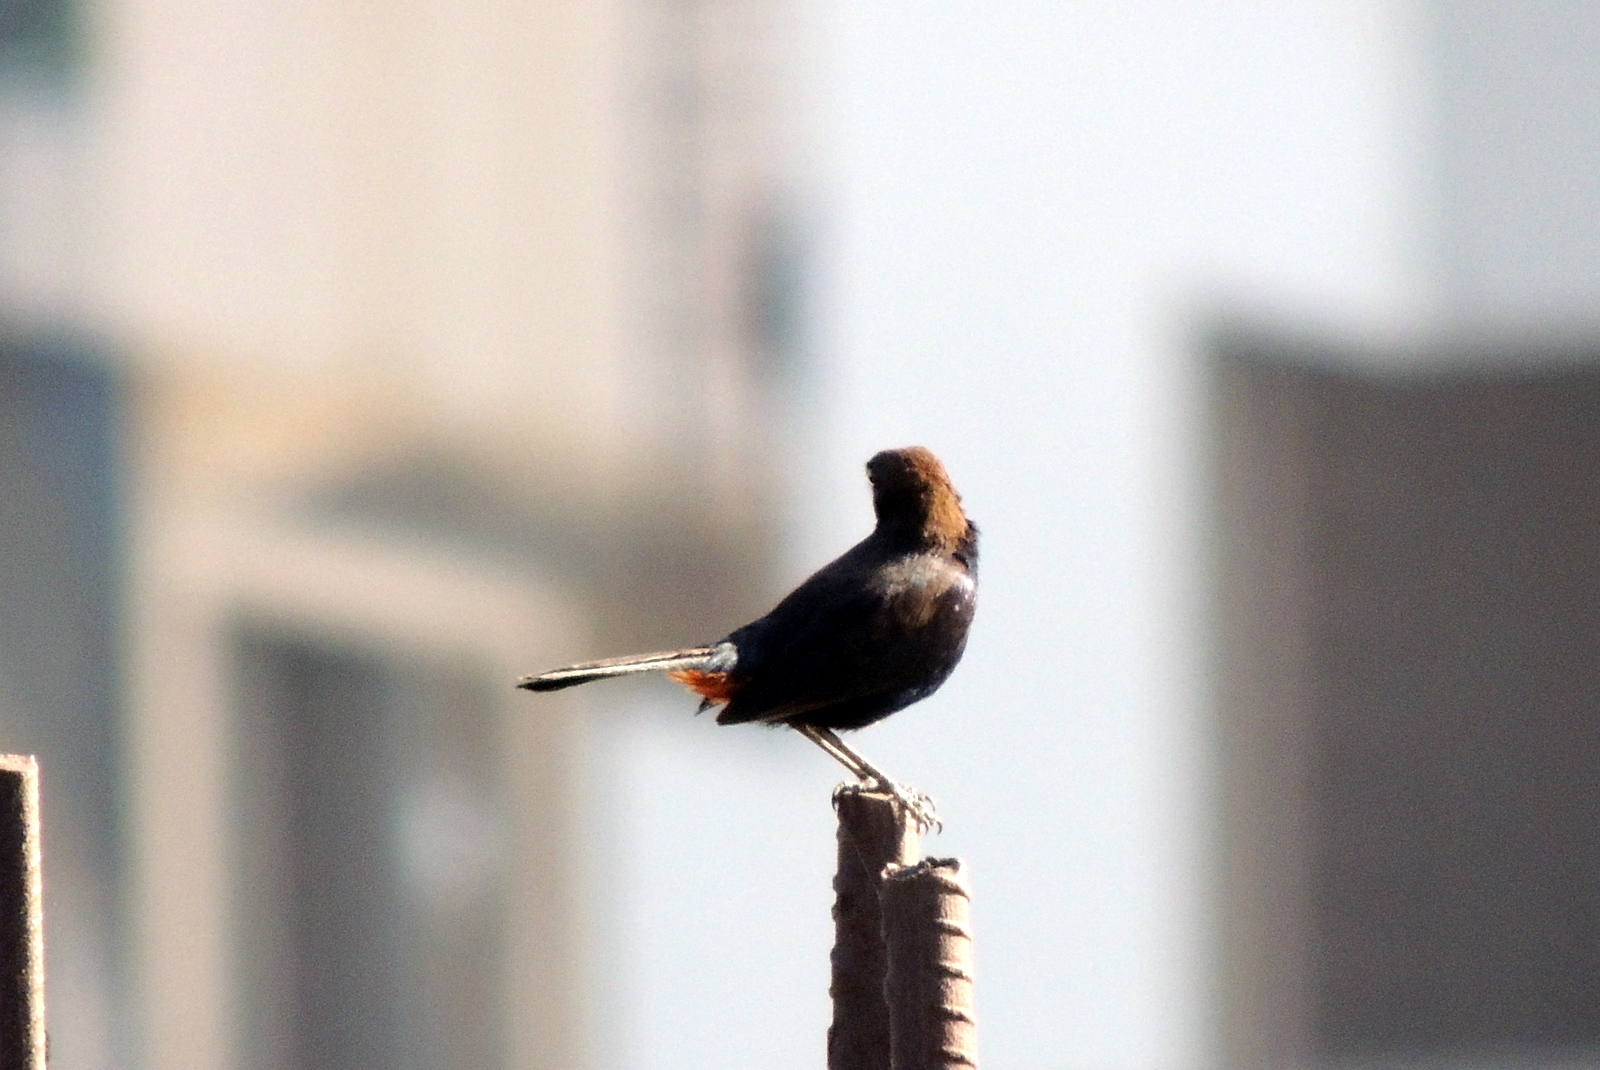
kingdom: Animalia
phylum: Chordata
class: Aves
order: Passeriformes
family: Muscicapidae
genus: Saxicoloides
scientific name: Saxicoloides fulicatus
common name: Indian robin
